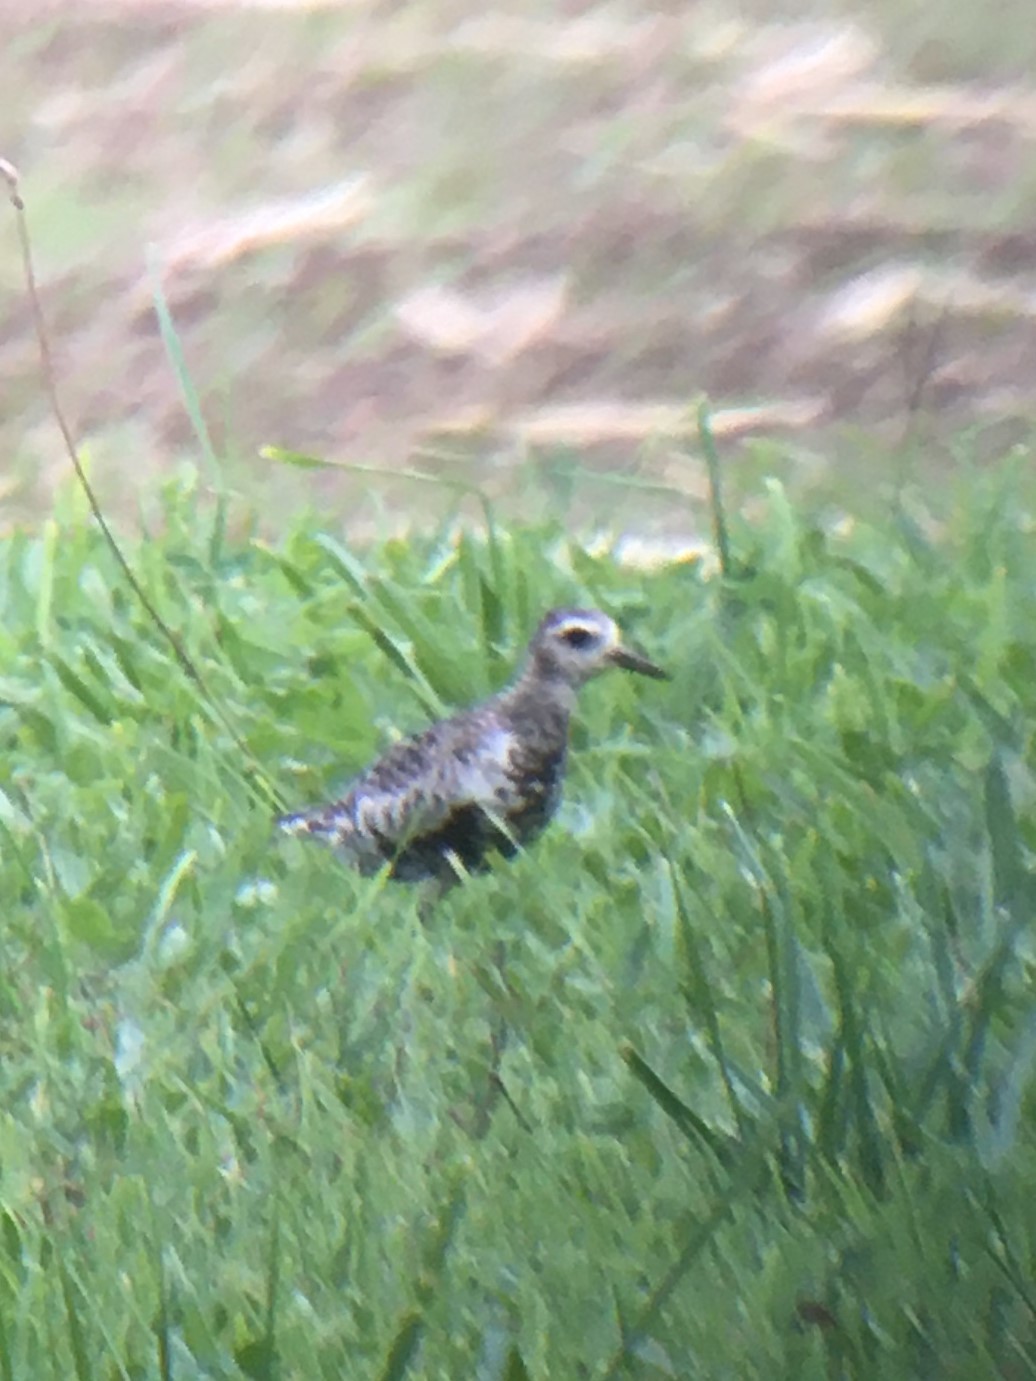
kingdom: Animalia
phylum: Chordata
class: Aves
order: Charadriiformes
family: Charadriidae
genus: Pluvialis
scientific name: Pluvialis fulva
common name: Pacific golden plover
